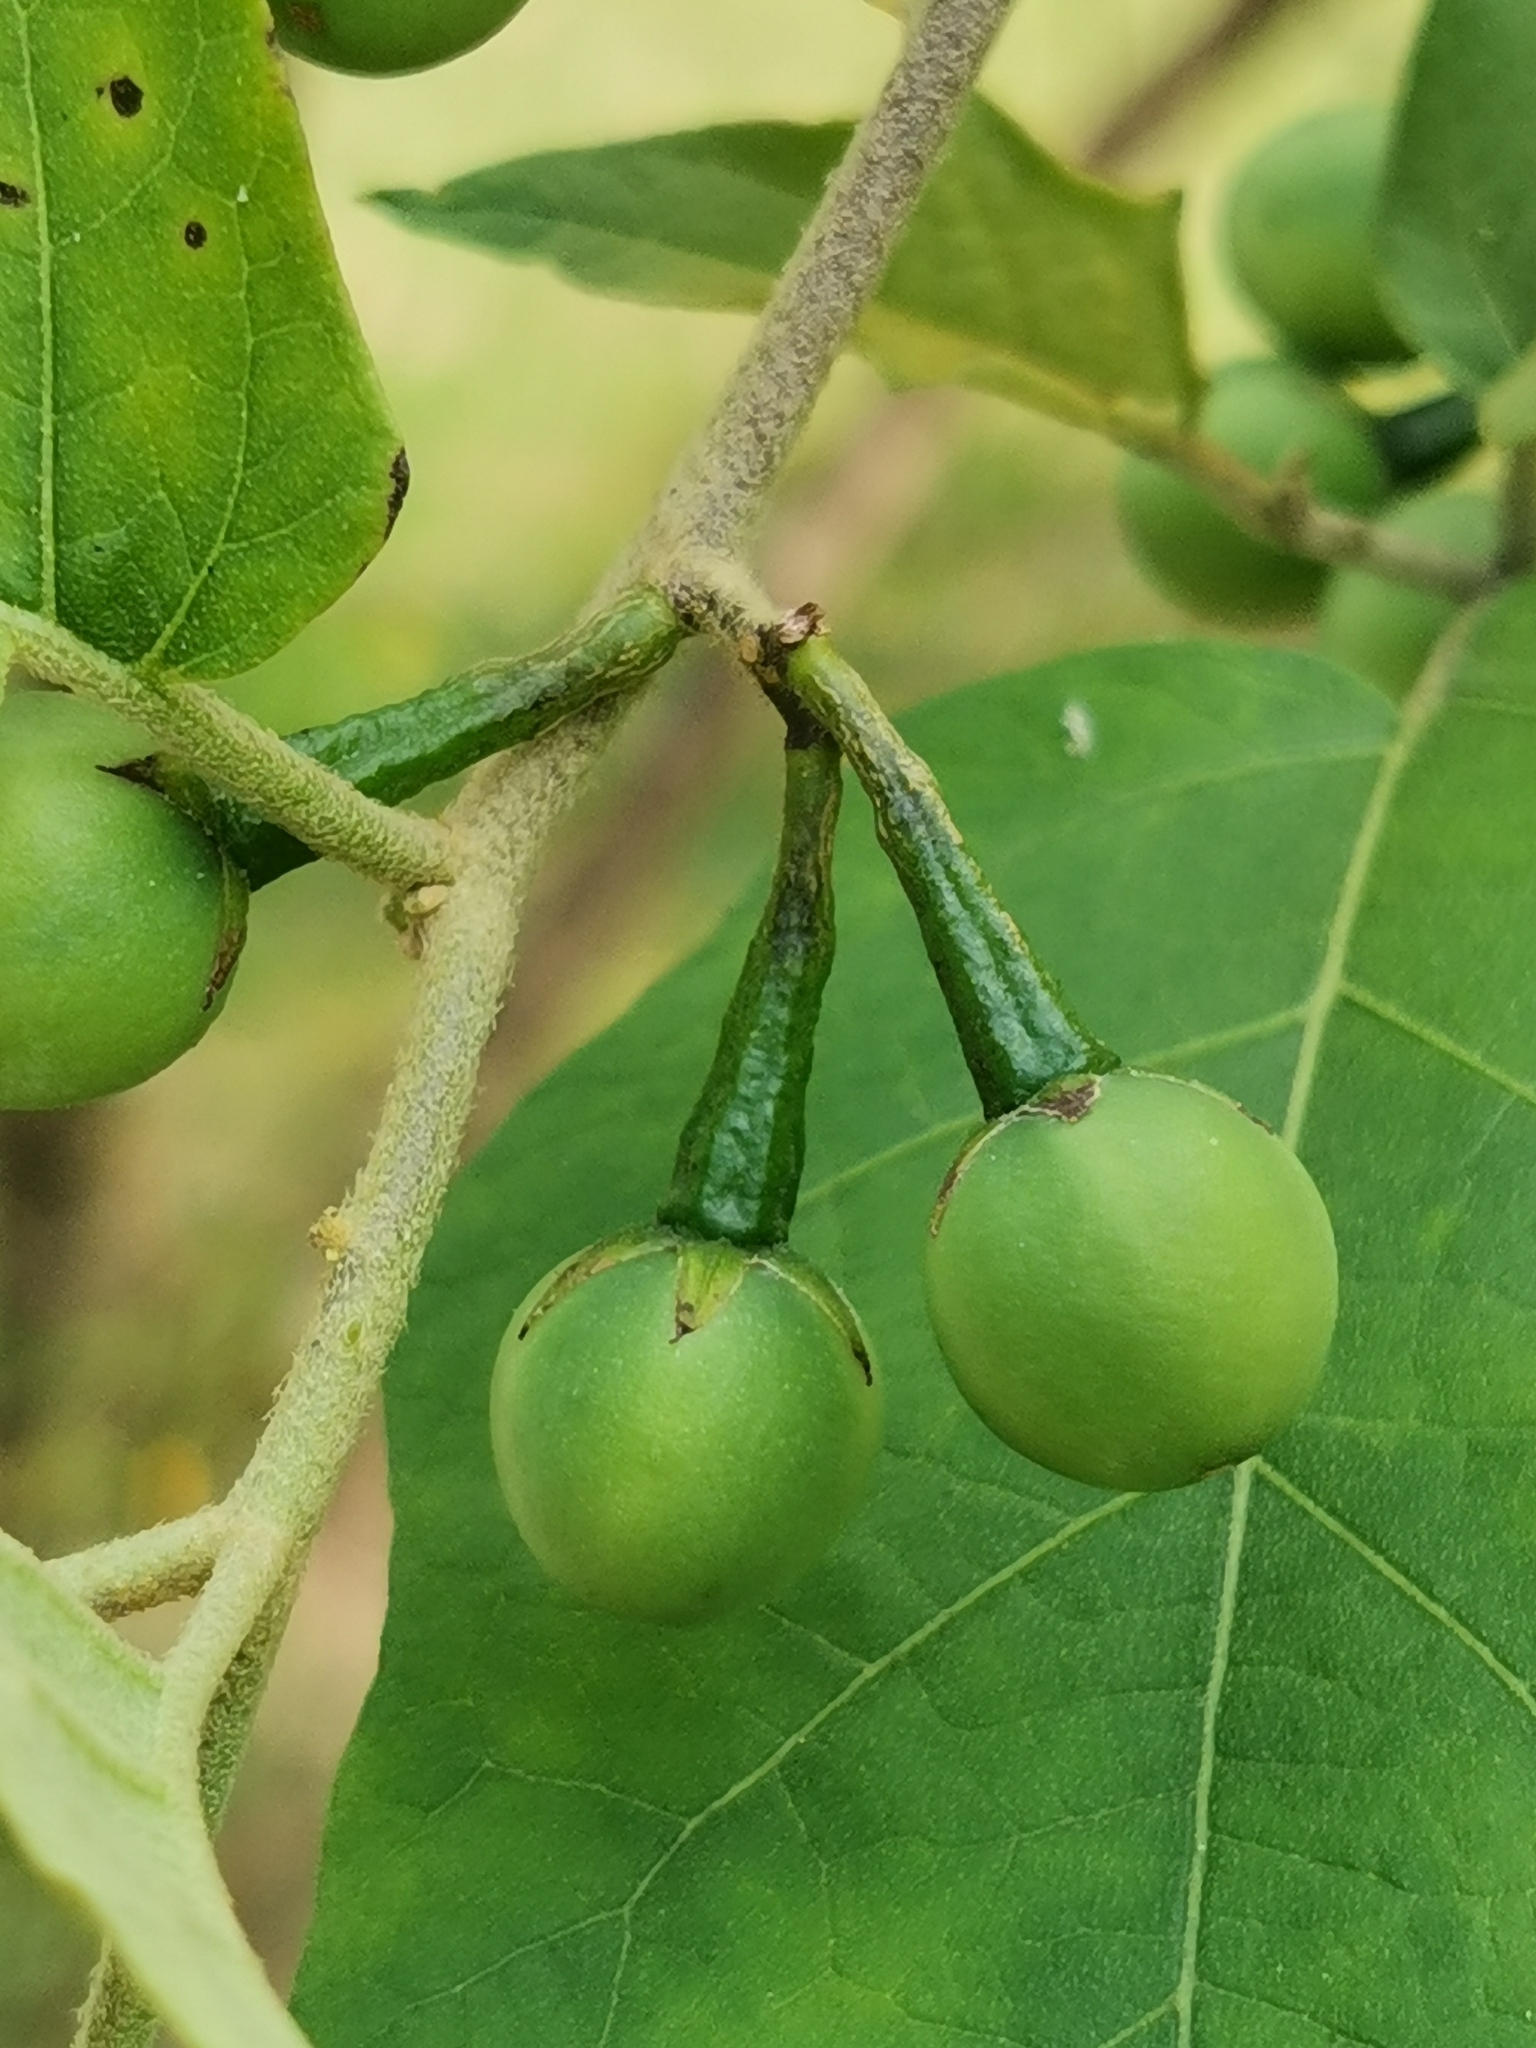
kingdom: Plantae
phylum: Tracheophyta
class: Magnoliopsida
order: Solanales
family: Solanaceae
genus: Solanum
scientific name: Solanum torvum
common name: Turkey berry
